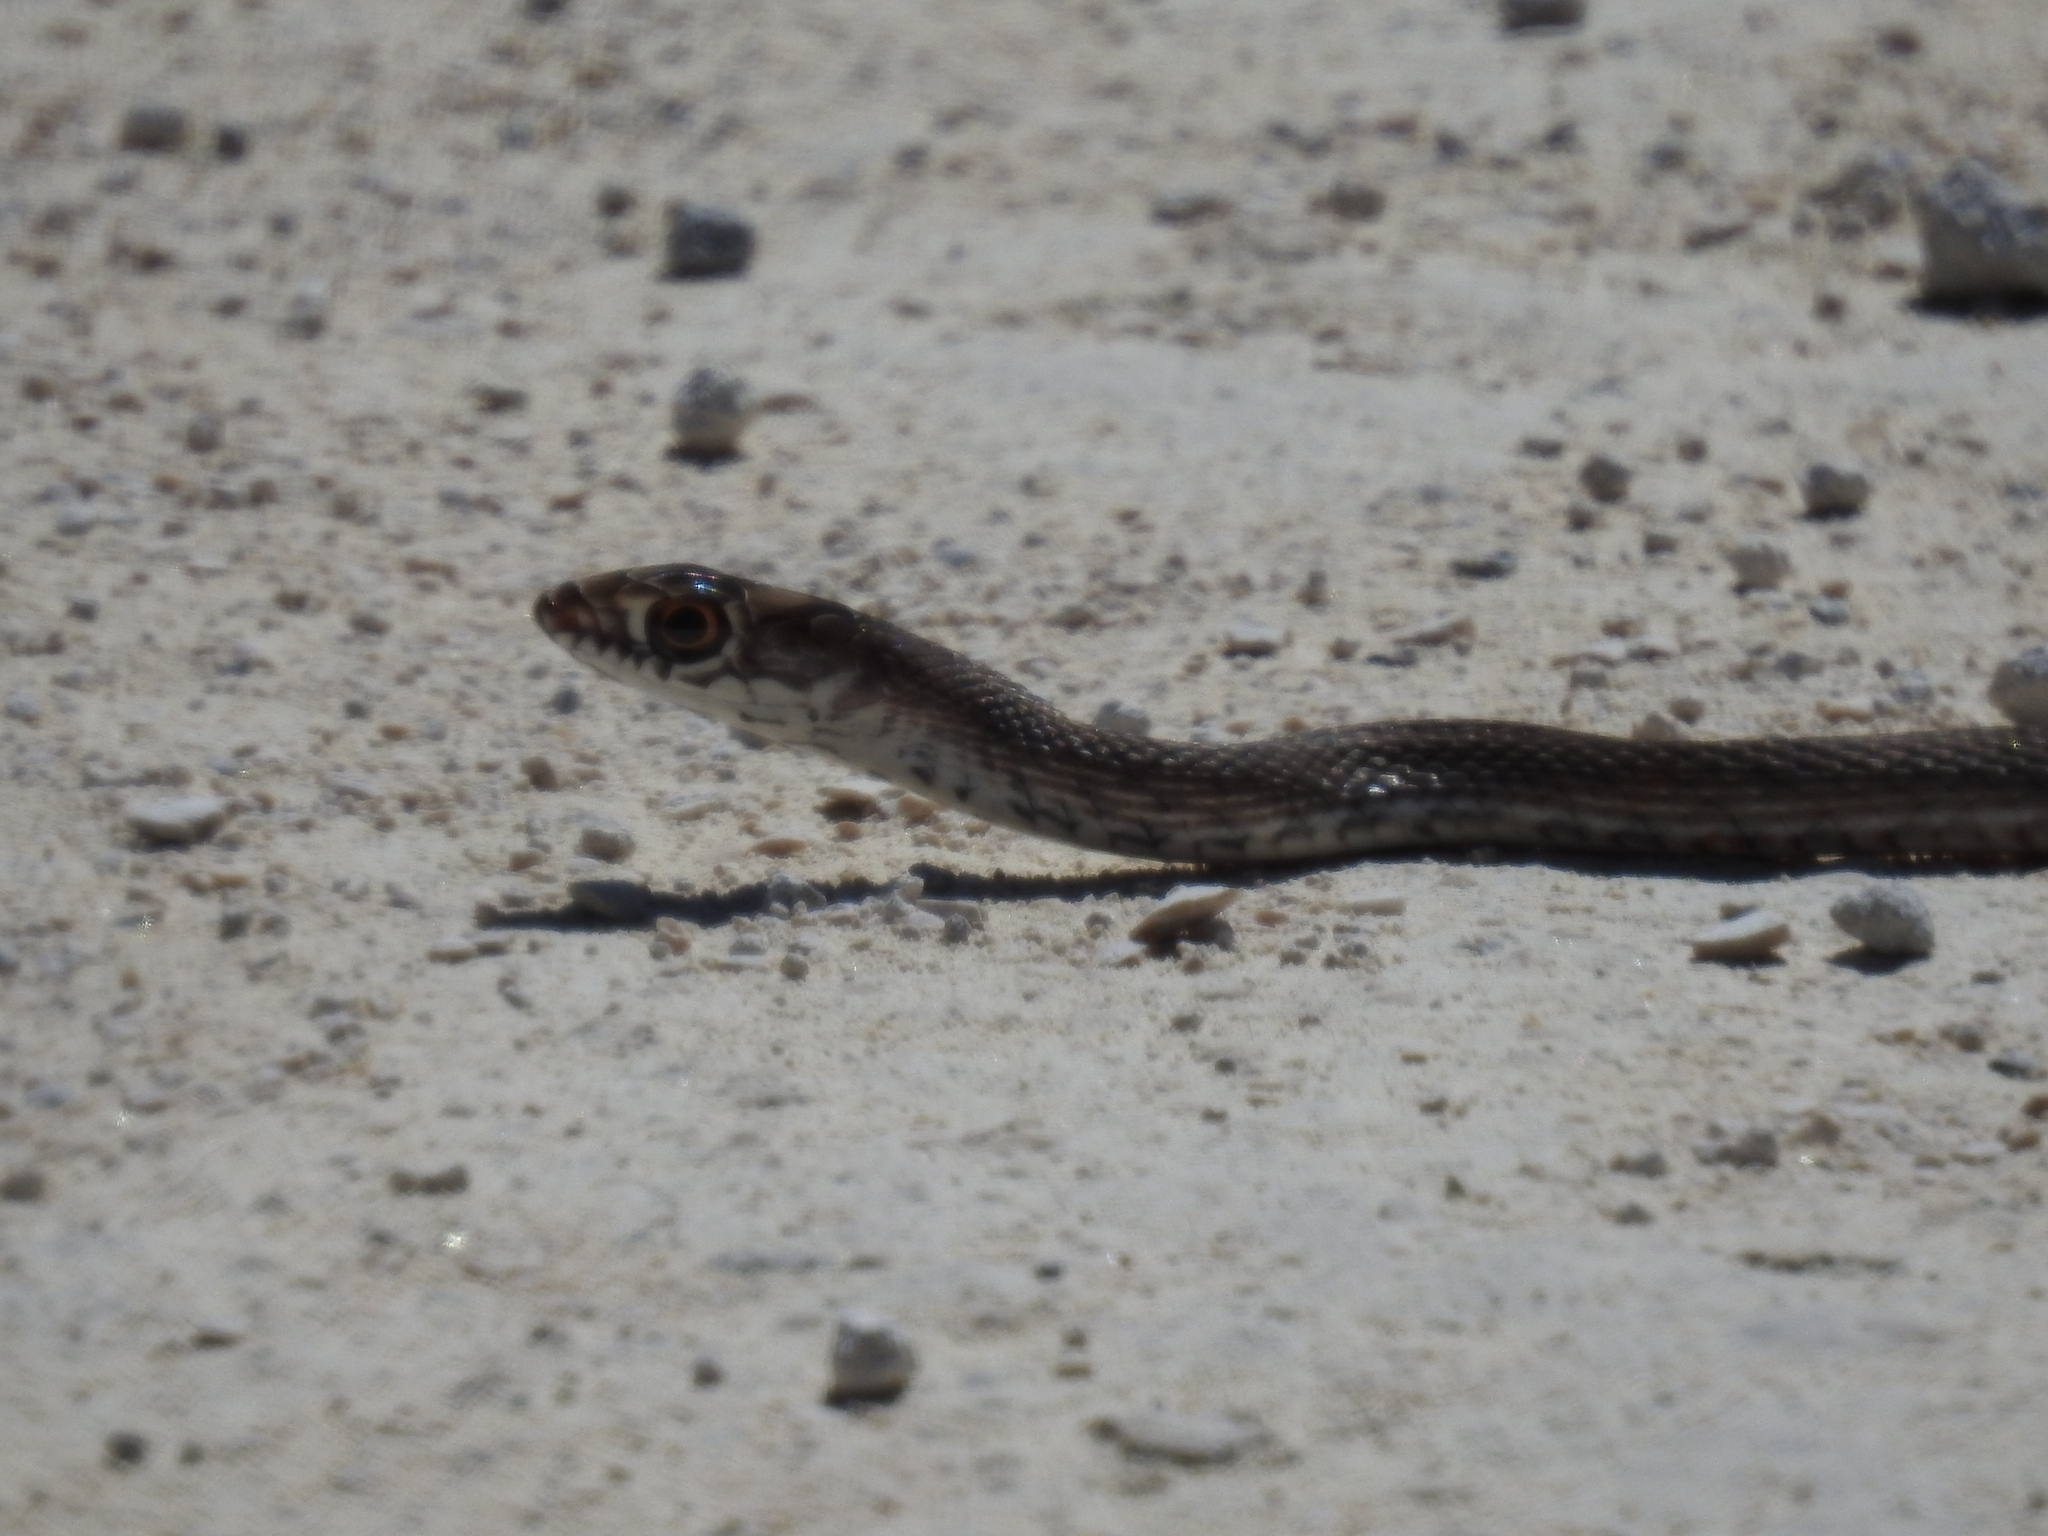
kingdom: Animalia
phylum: Chordata
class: Squamata
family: Colubridae
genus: Masticophis
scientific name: Masticophis flagellum
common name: Coachwhip
